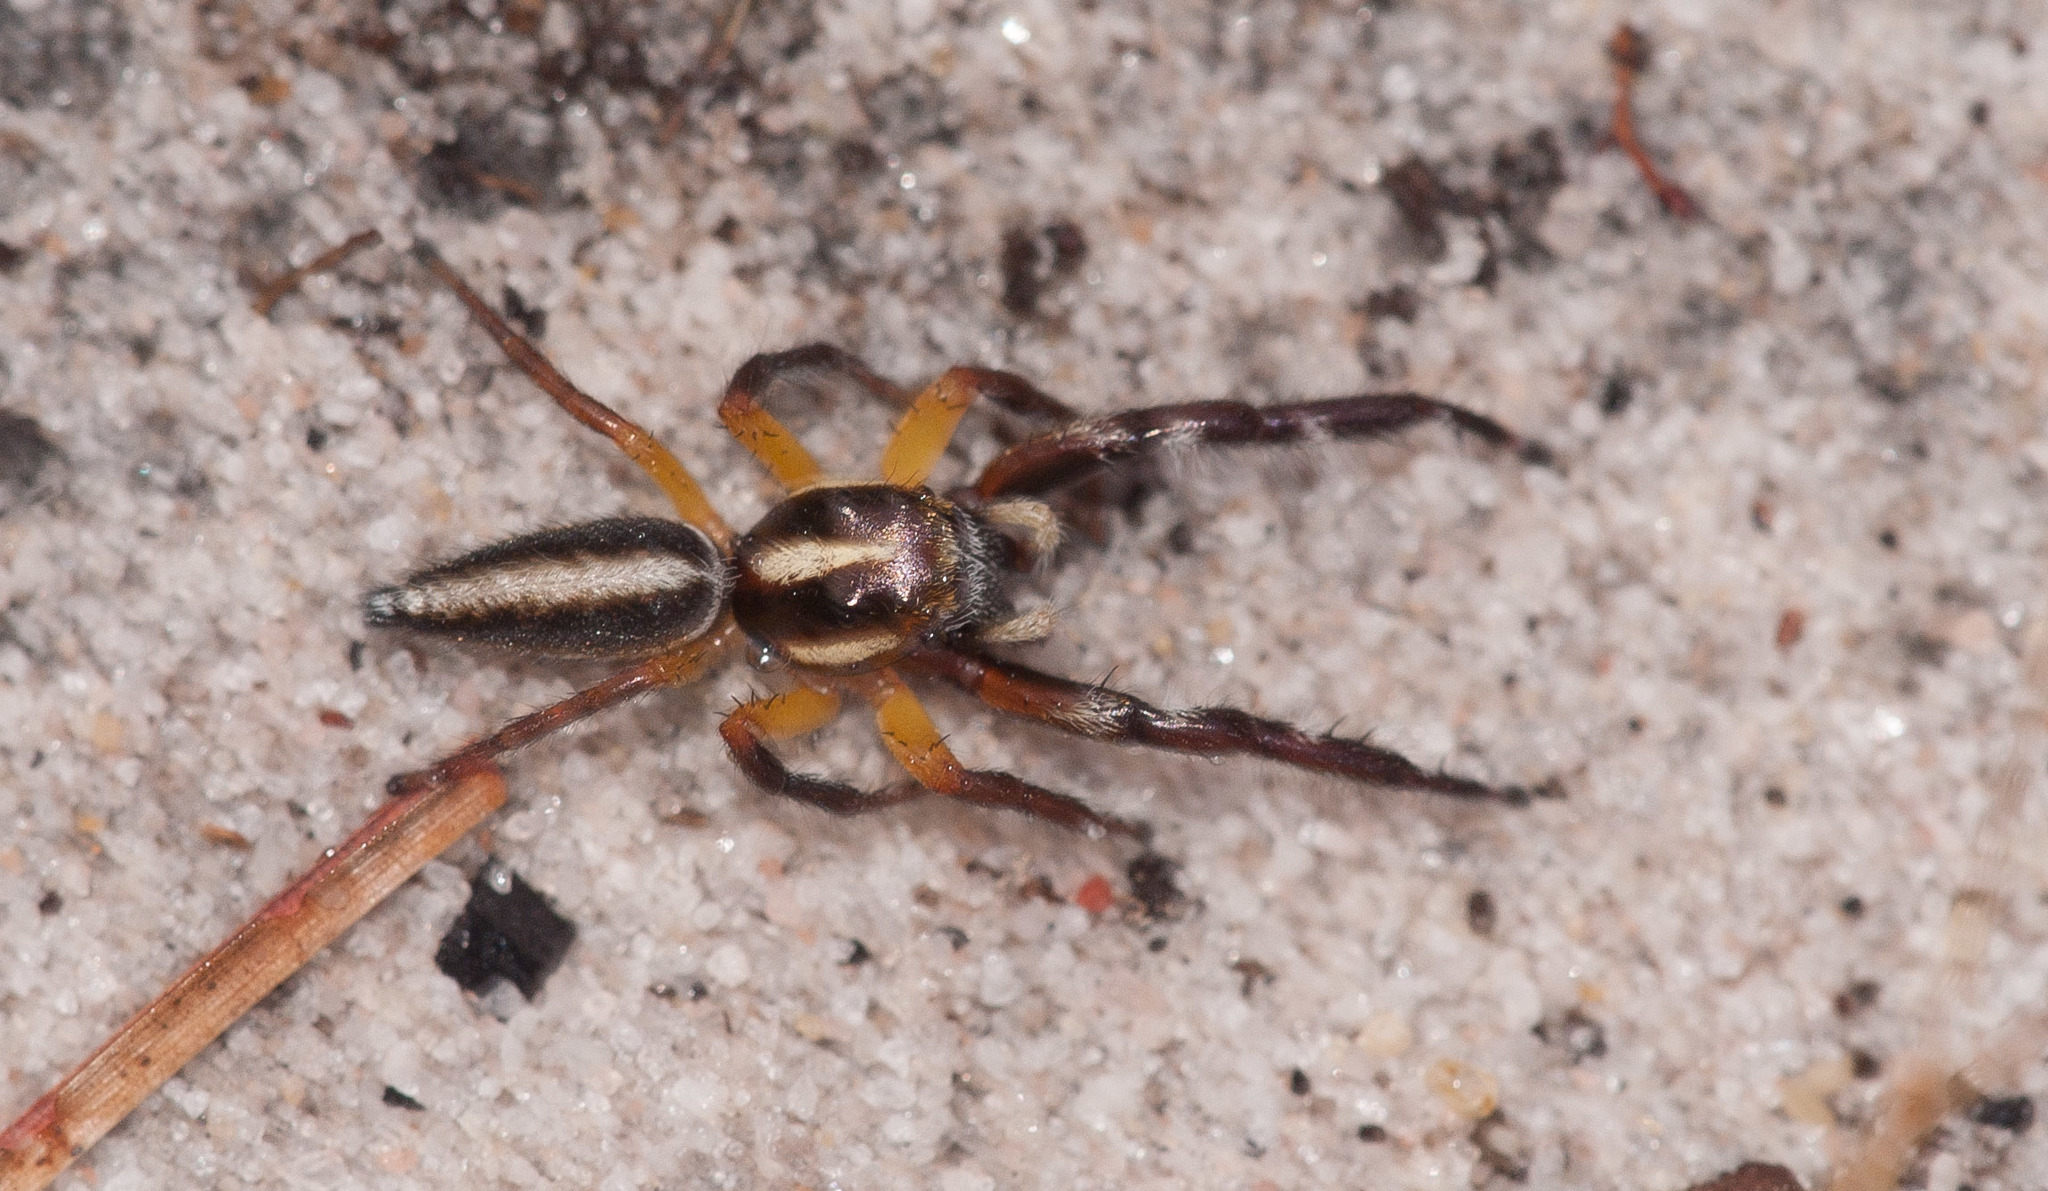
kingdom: Animalia
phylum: Arthropoda
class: Arachnida
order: Araneae
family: Salticidae
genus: Mopsolodes
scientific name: Mopsolodes australensis
